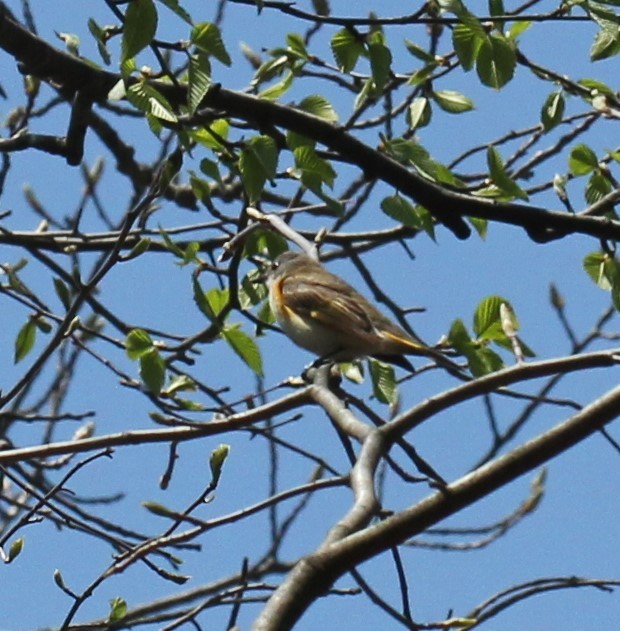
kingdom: Animalia
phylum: Chordata
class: Aves
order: Passeriformes
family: Parulidae
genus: Setophaga
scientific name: Setophaga ruticilla
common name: American redstart
